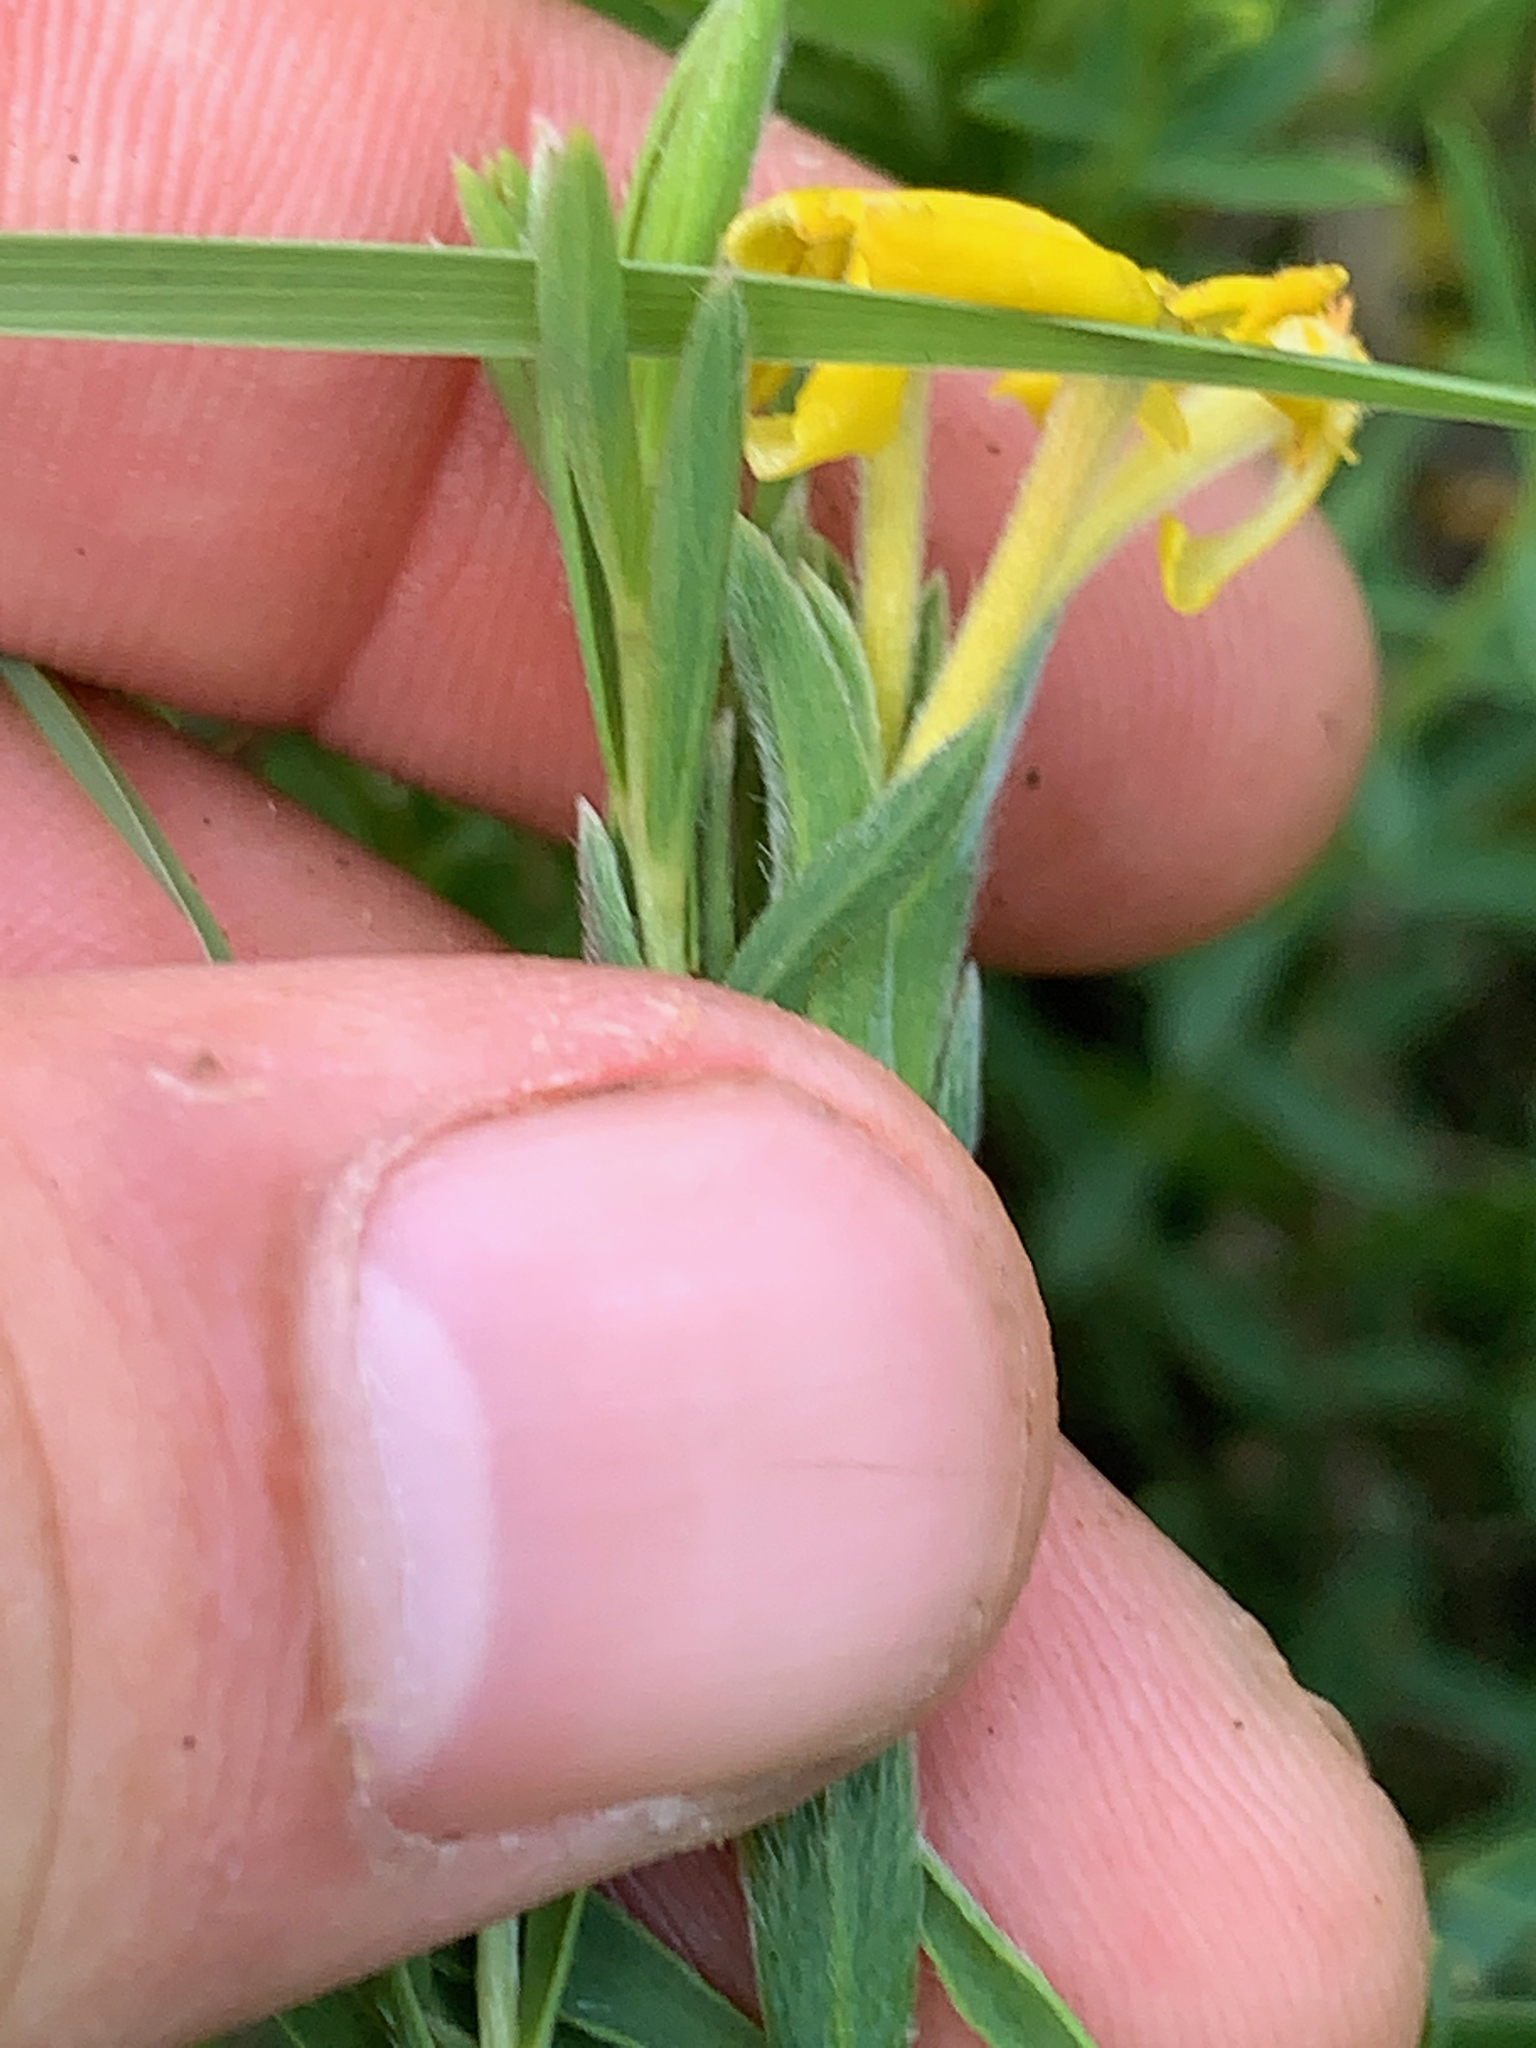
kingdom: Plantae
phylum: Tracheophyta
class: Magnoliopsida
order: Malvales
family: Thymelaeaceae
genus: Gnidia
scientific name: Gnidia caffra
